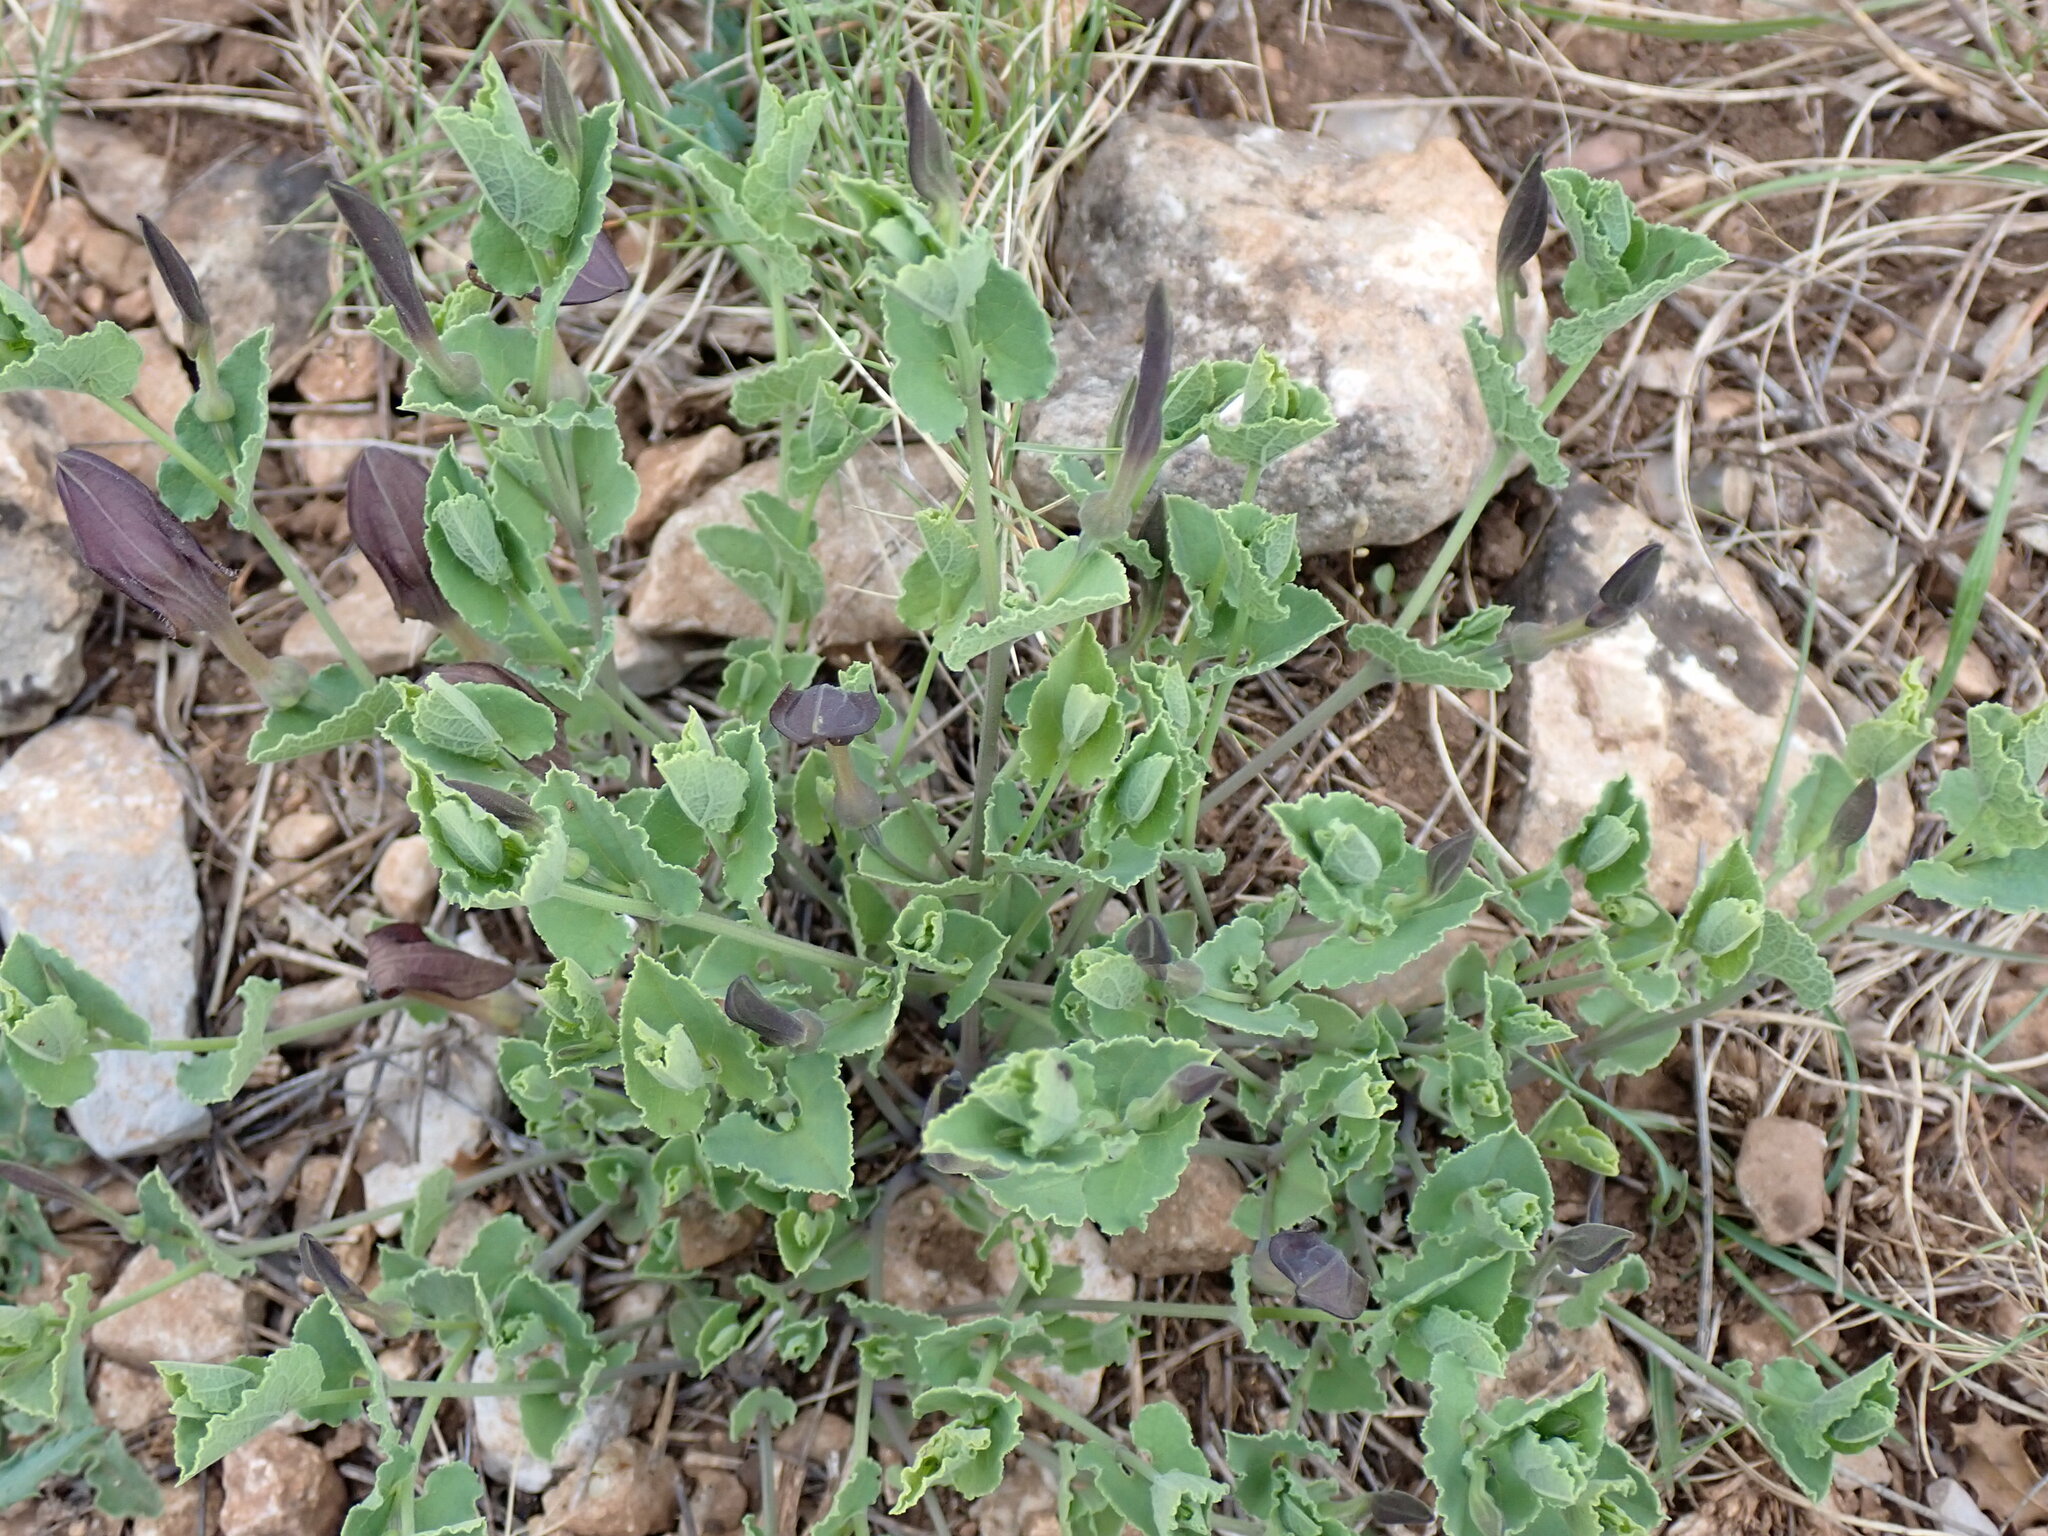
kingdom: Plantae
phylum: Tracheophyta
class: Magnoliopsida
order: Piperales
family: Aristolochiaceae
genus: Aristolochia
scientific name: Aristolochia pistolochia
